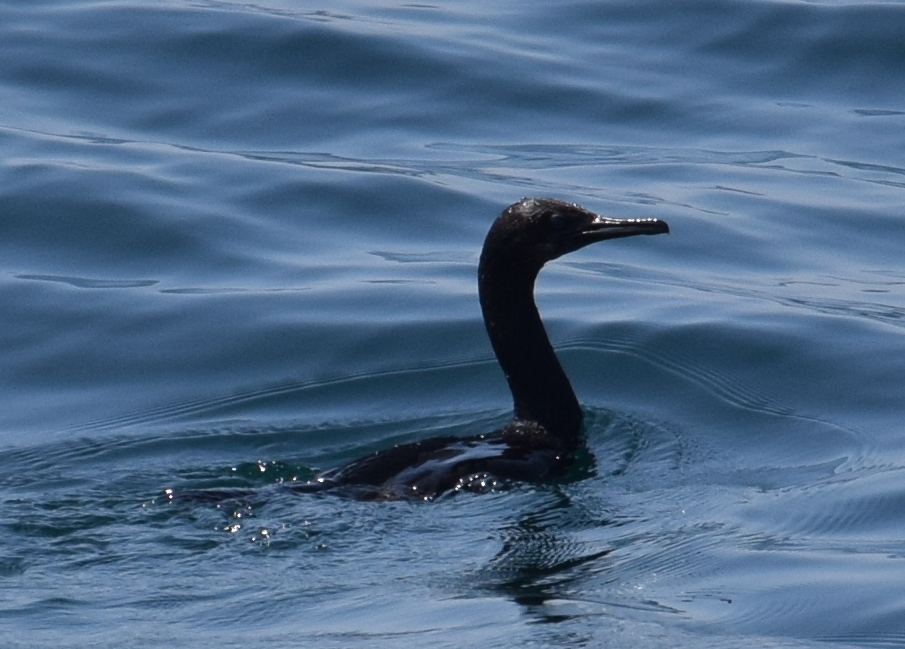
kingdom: Animalia
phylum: Chordata
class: Aves
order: Suliformes
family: Phalacrocoracidae
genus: Urile
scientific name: Urile penicillatus
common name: Brandt's cormorant
